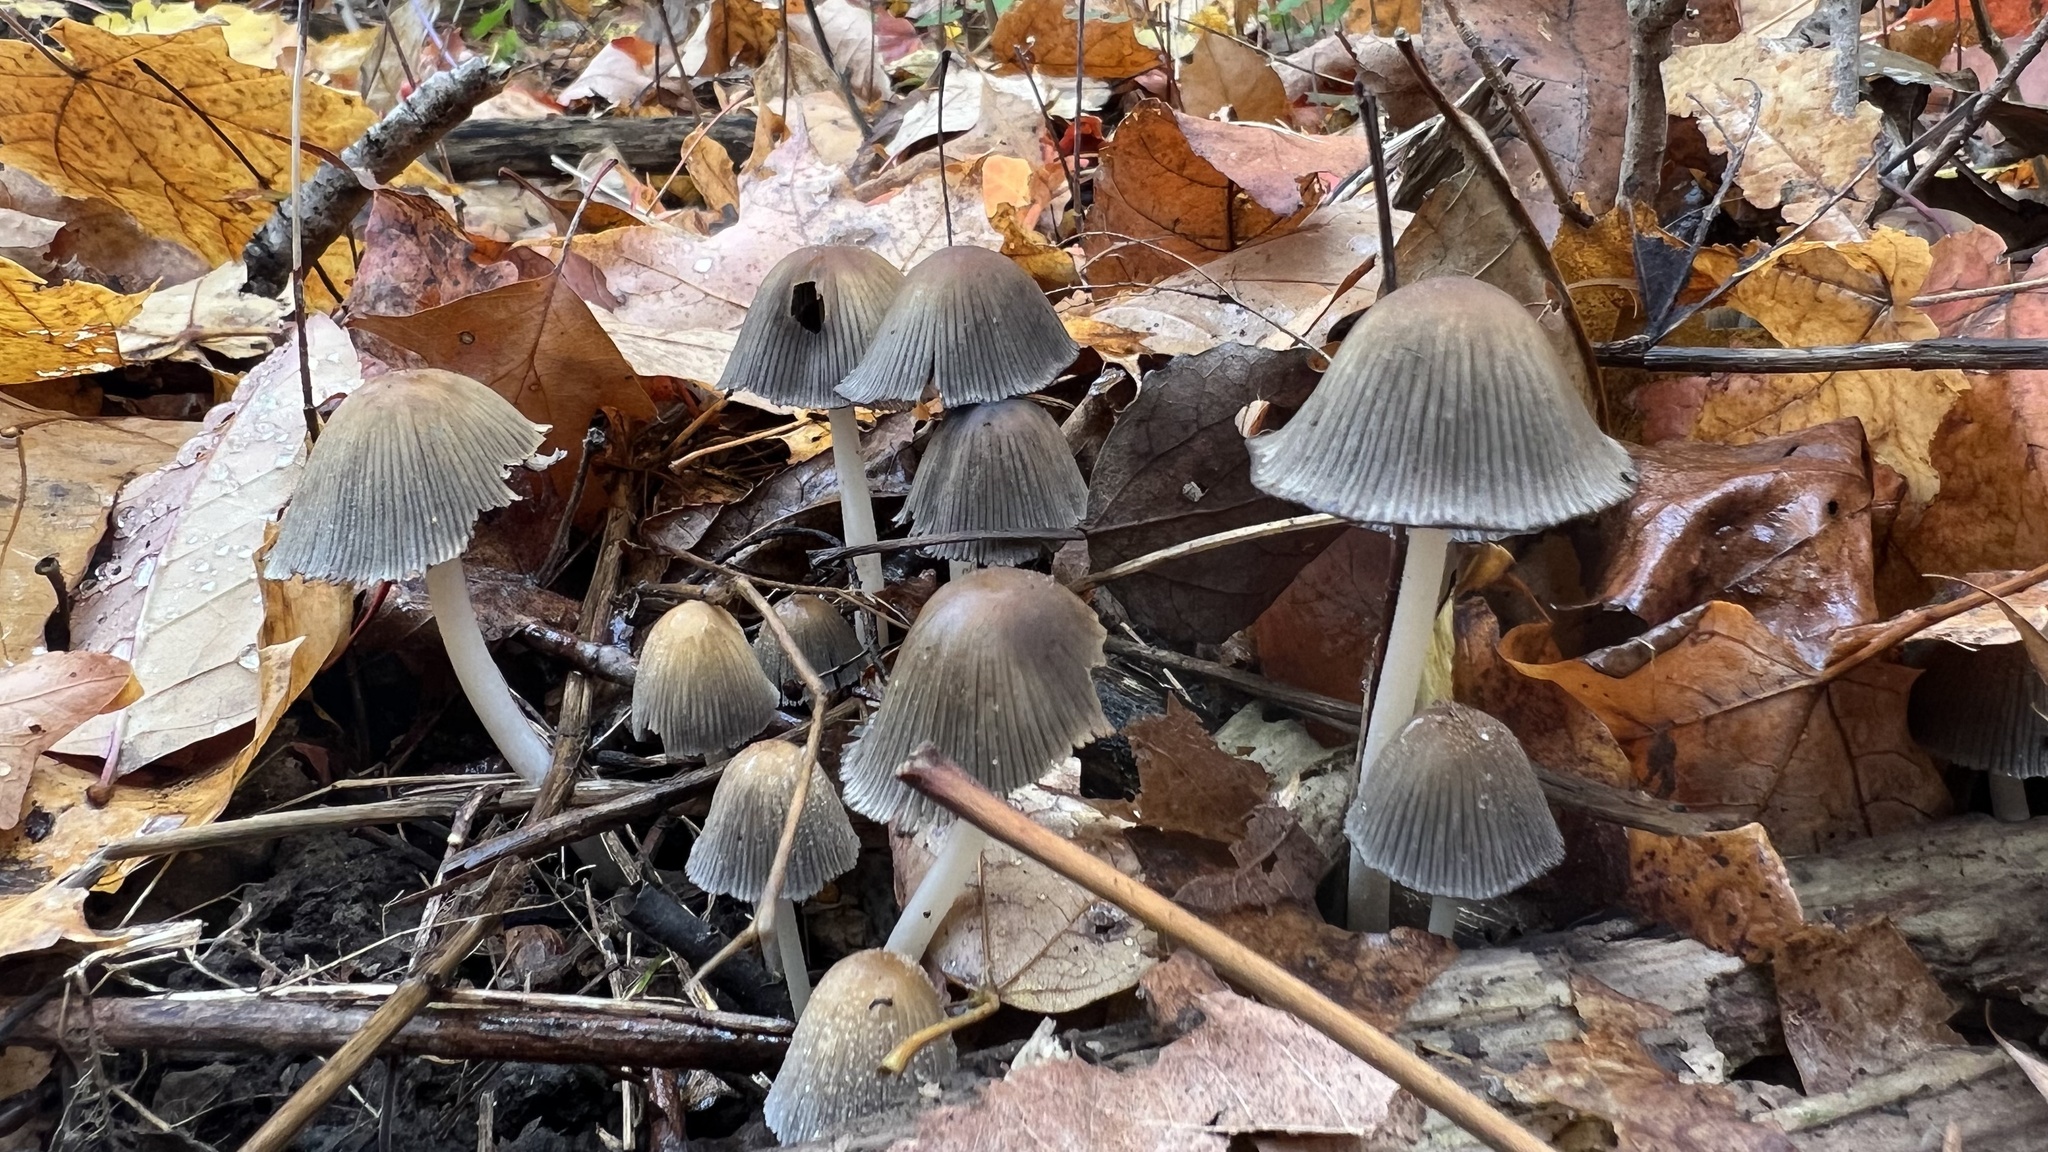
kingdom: Fungi
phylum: Basidiomycota
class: Agaricomycetes
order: Agaricales
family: Psathyrellaceae
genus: Coprinellus
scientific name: Coprinellus micaceus
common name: Glistening ink-cap
